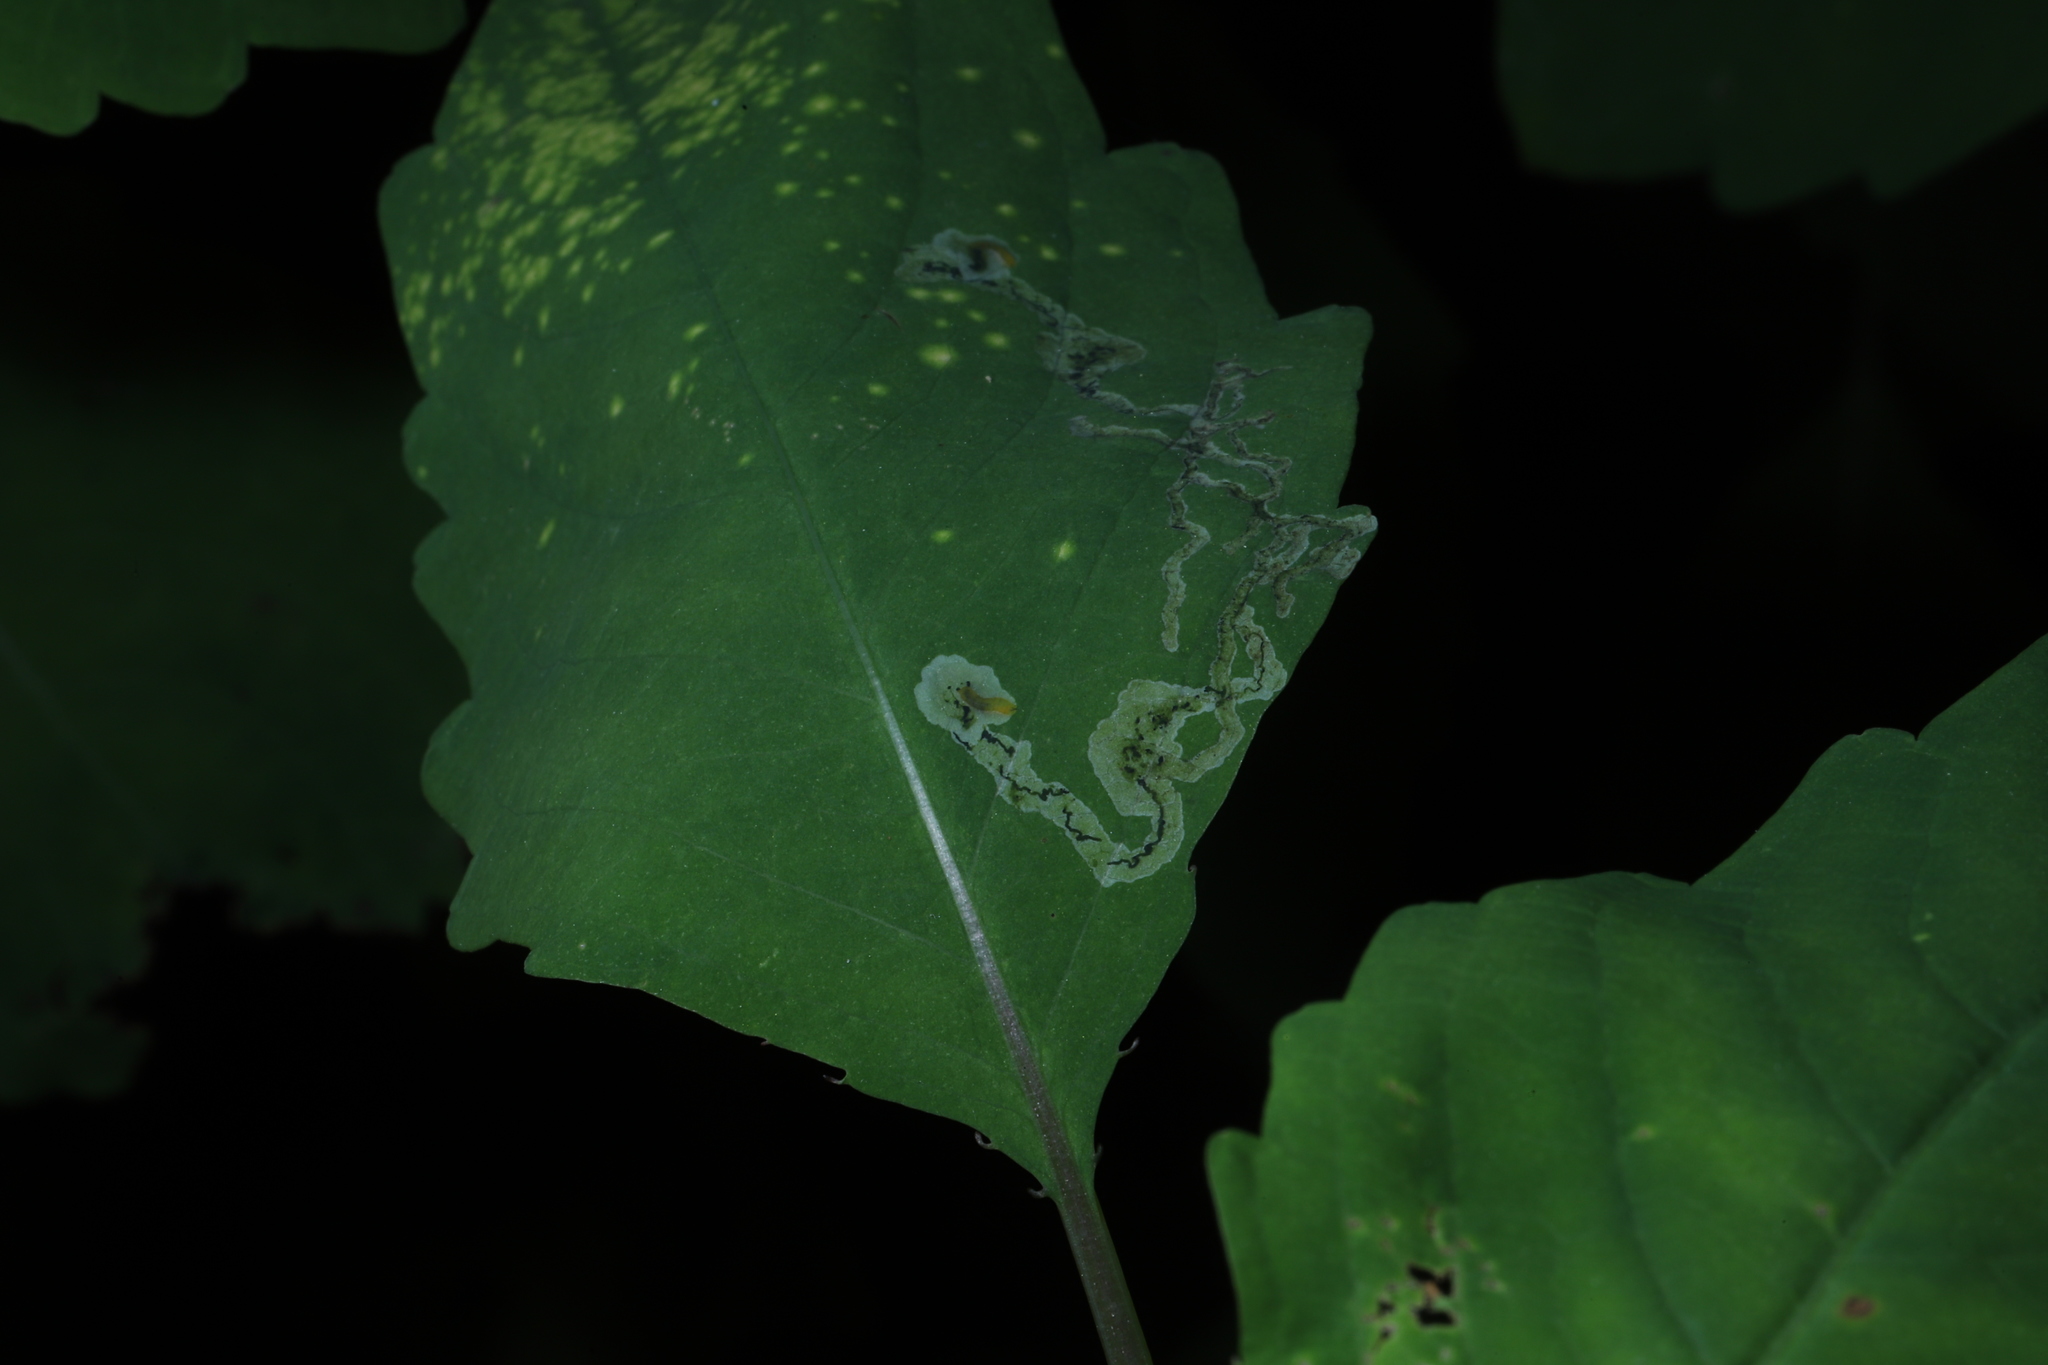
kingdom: Animalia
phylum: Arthropoda
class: Insecta
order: Diptera
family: Agromyzidae
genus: Phytoliriomyza
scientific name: Phytoliriomyza melampyga
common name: Jewelweed leaf-miner fly
